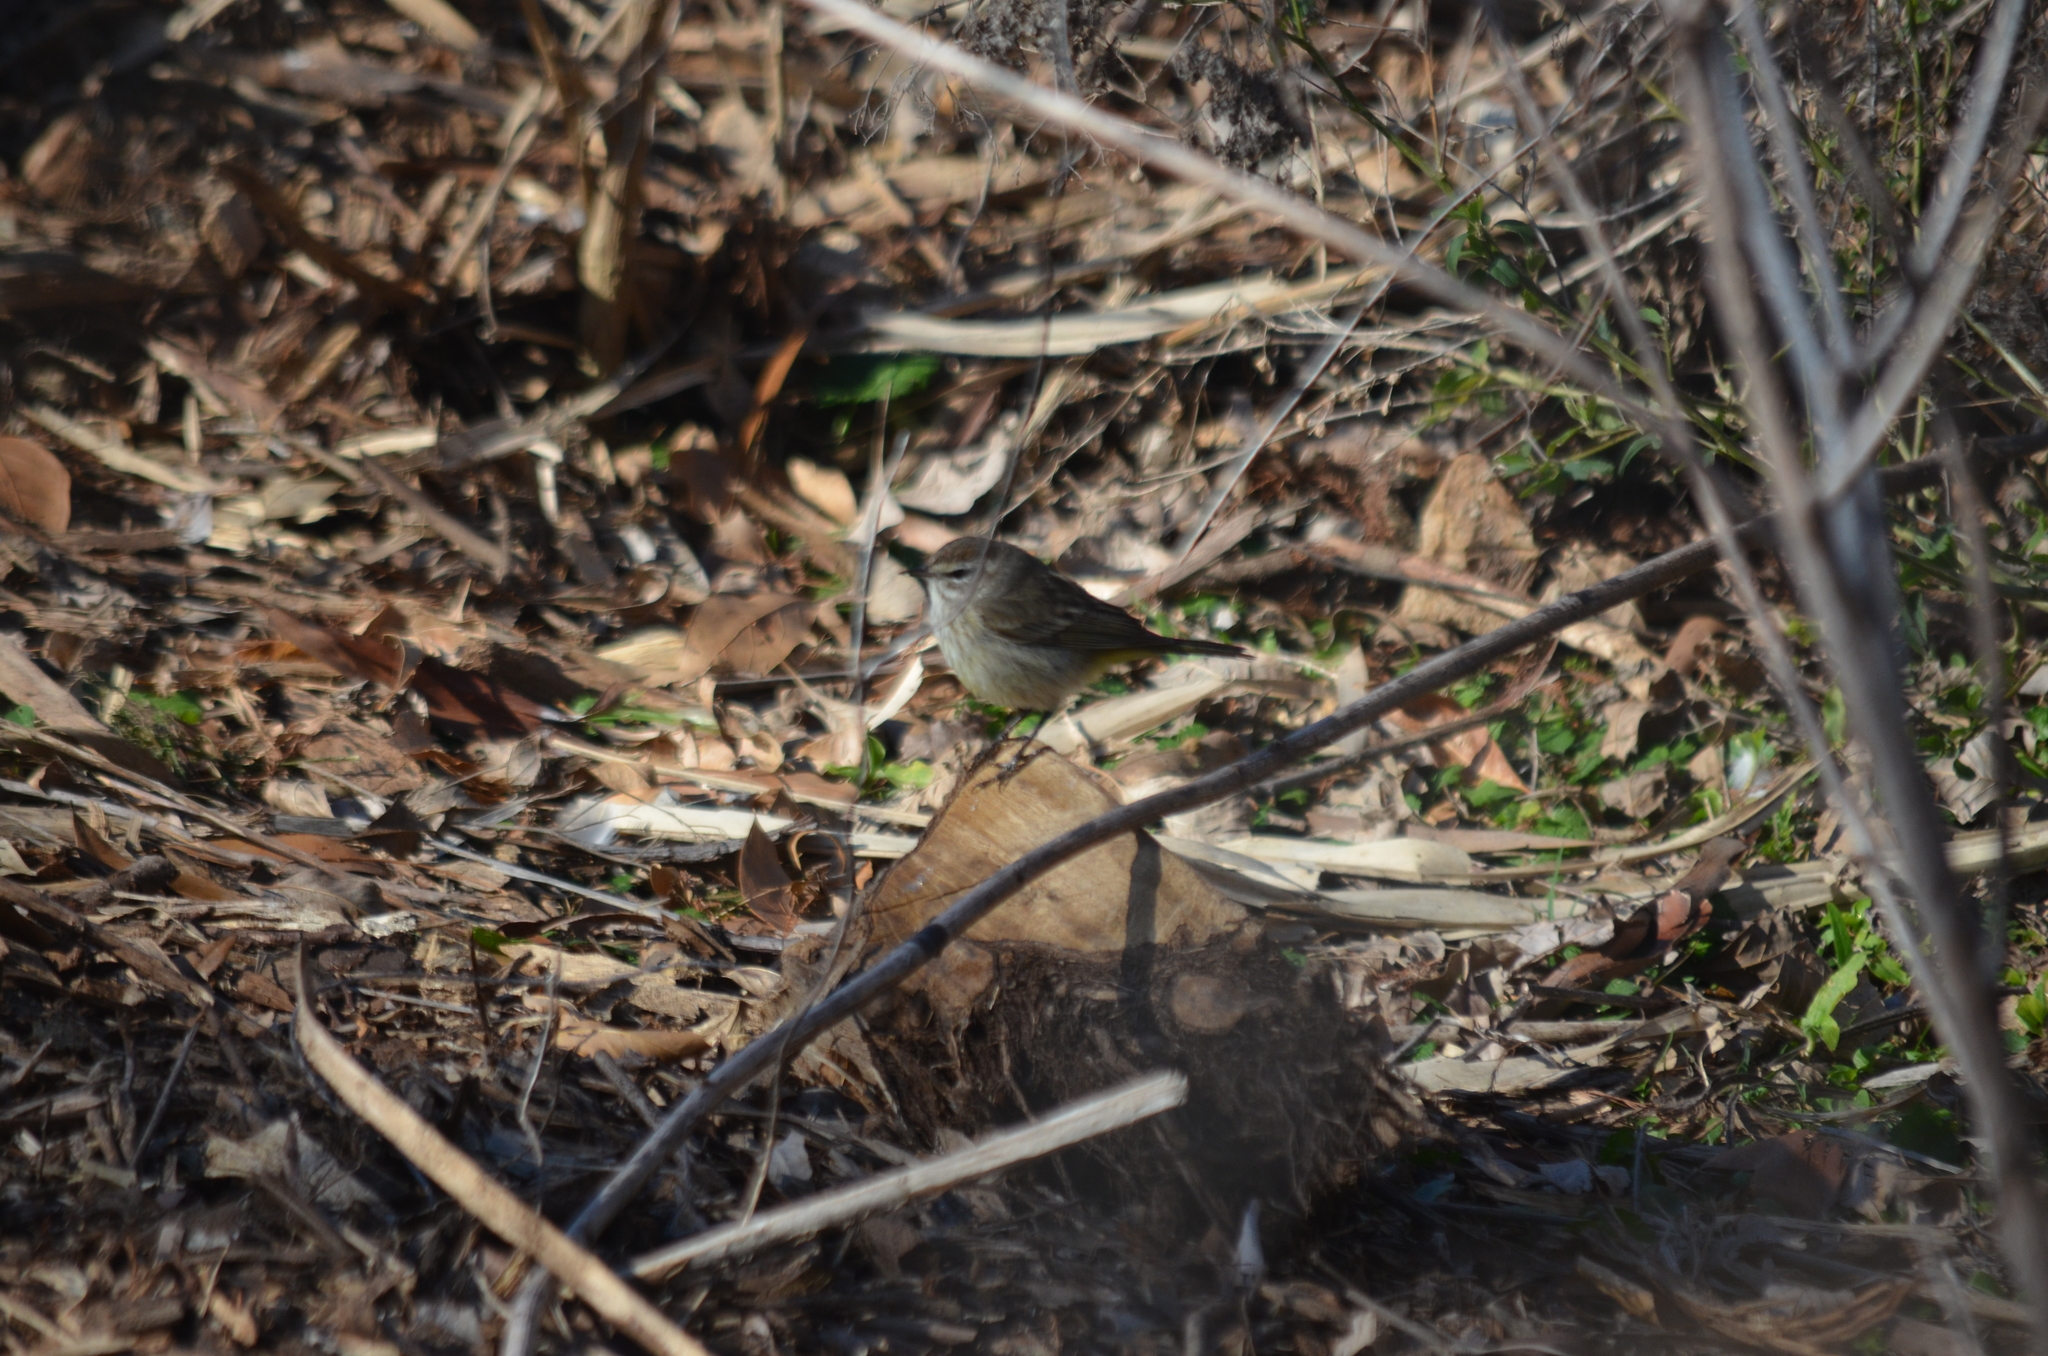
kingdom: Animalia
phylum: Chordata
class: Aves
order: Passeriformes
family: Parulidae
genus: Setophaga
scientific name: Setophaga palmarum
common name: Palm warbler
